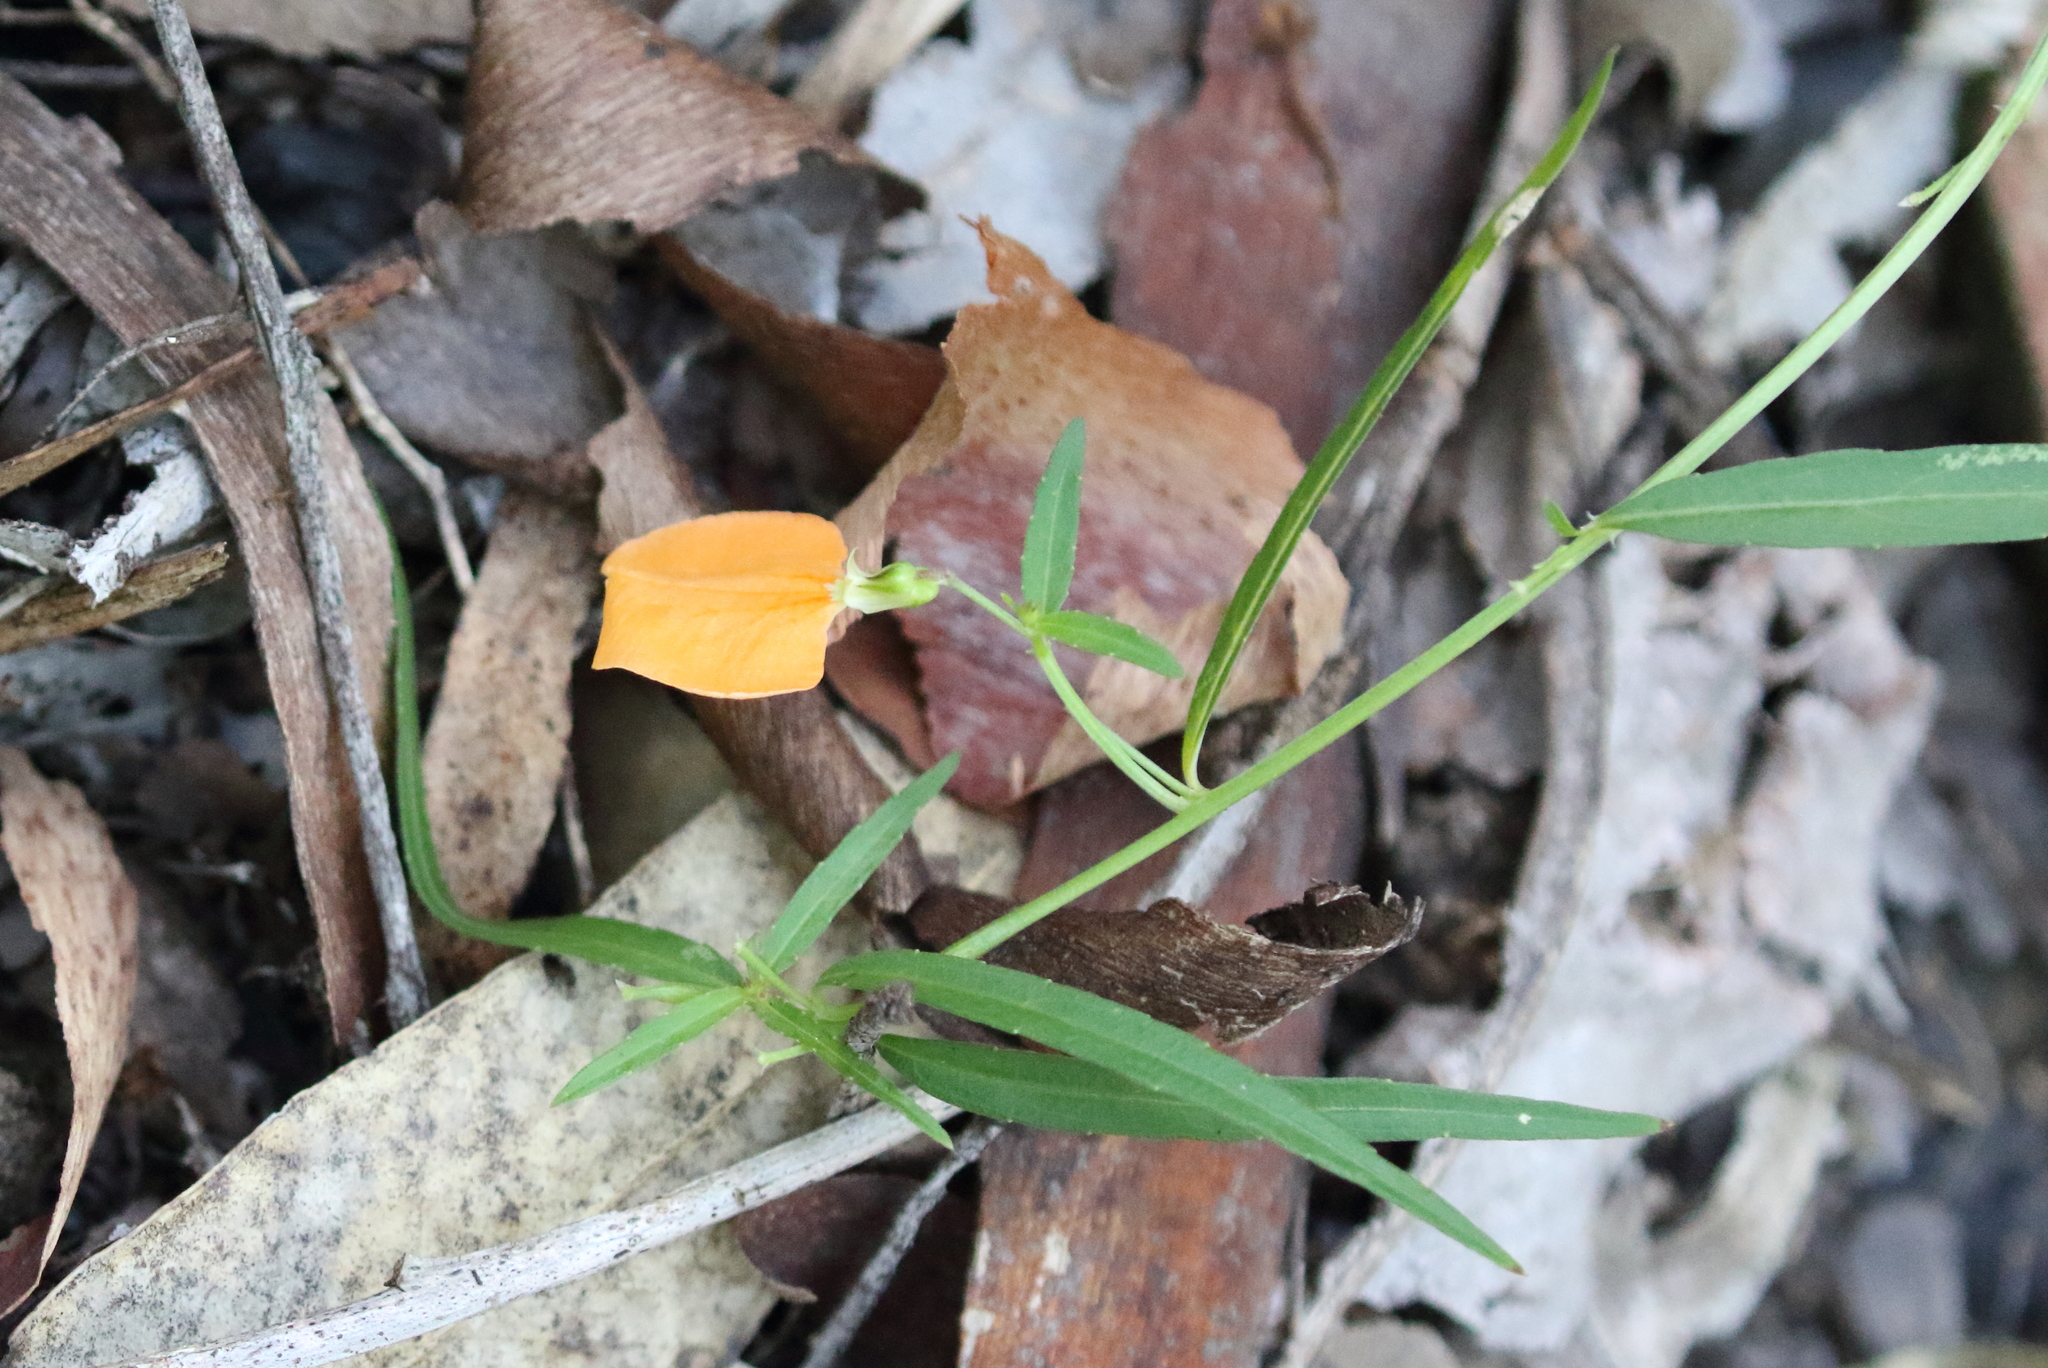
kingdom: Plantae
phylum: Tracheophyta
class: Magnoliopsida
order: Malpighiales
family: Violaceae
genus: Pigea
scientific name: Pigea stellarioides
